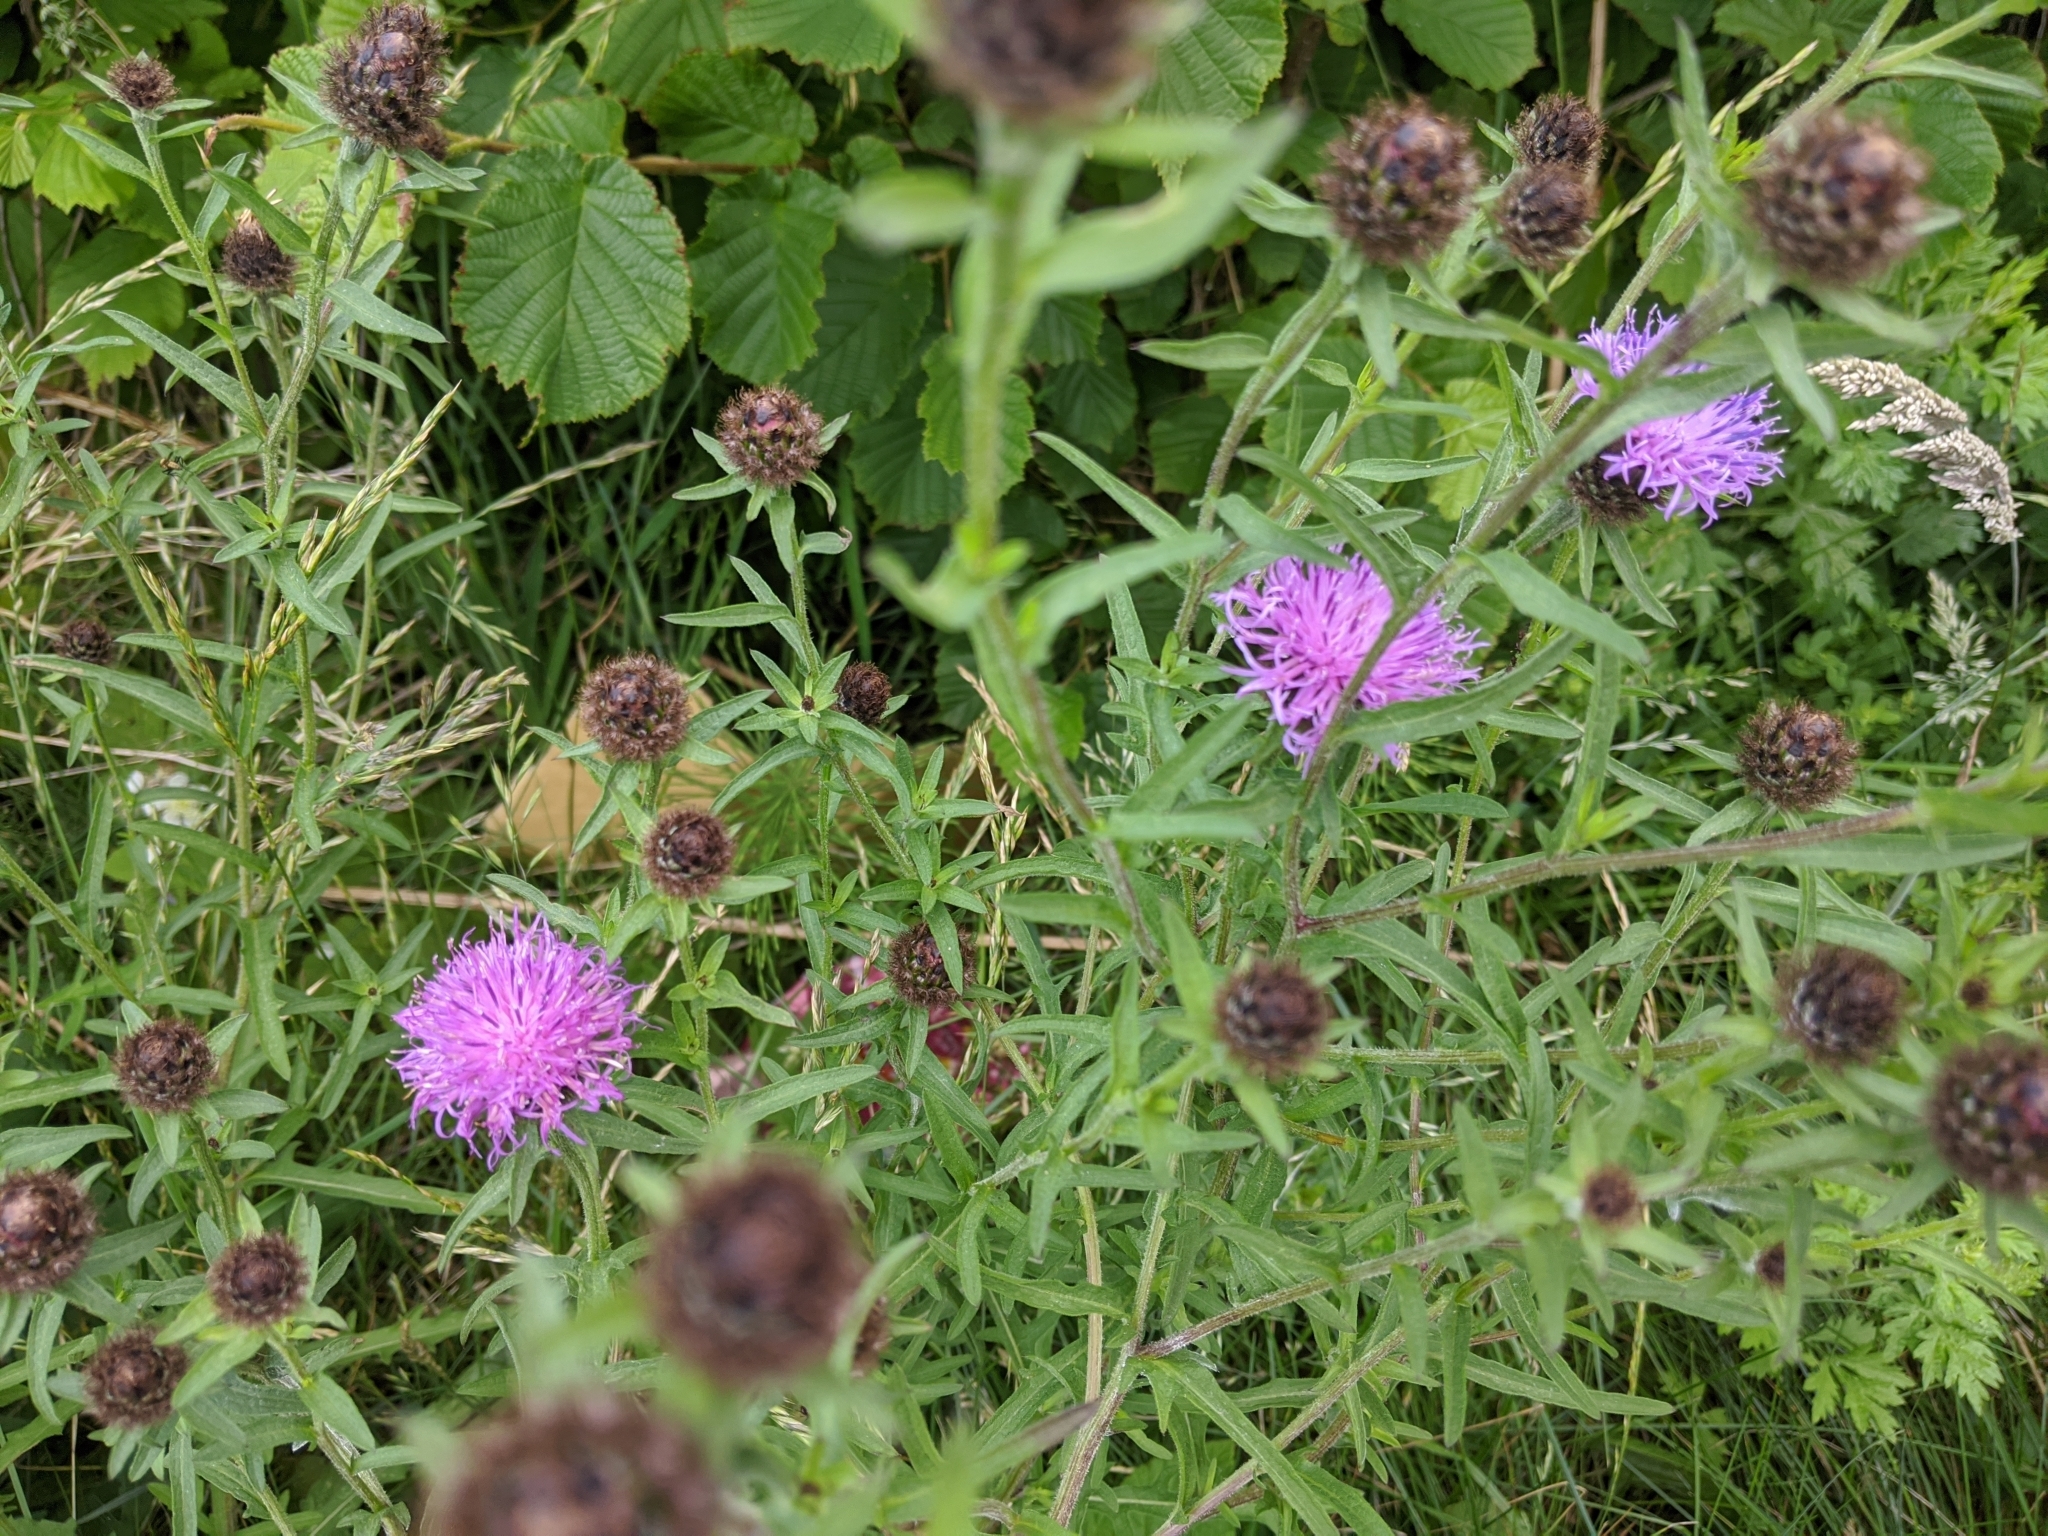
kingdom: Plantae
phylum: Tracheophyta
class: Magnoliopsida
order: Asterales
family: Asteraceae
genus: Centaurea
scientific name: Centaurea nigra
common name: Lesser knapweed
